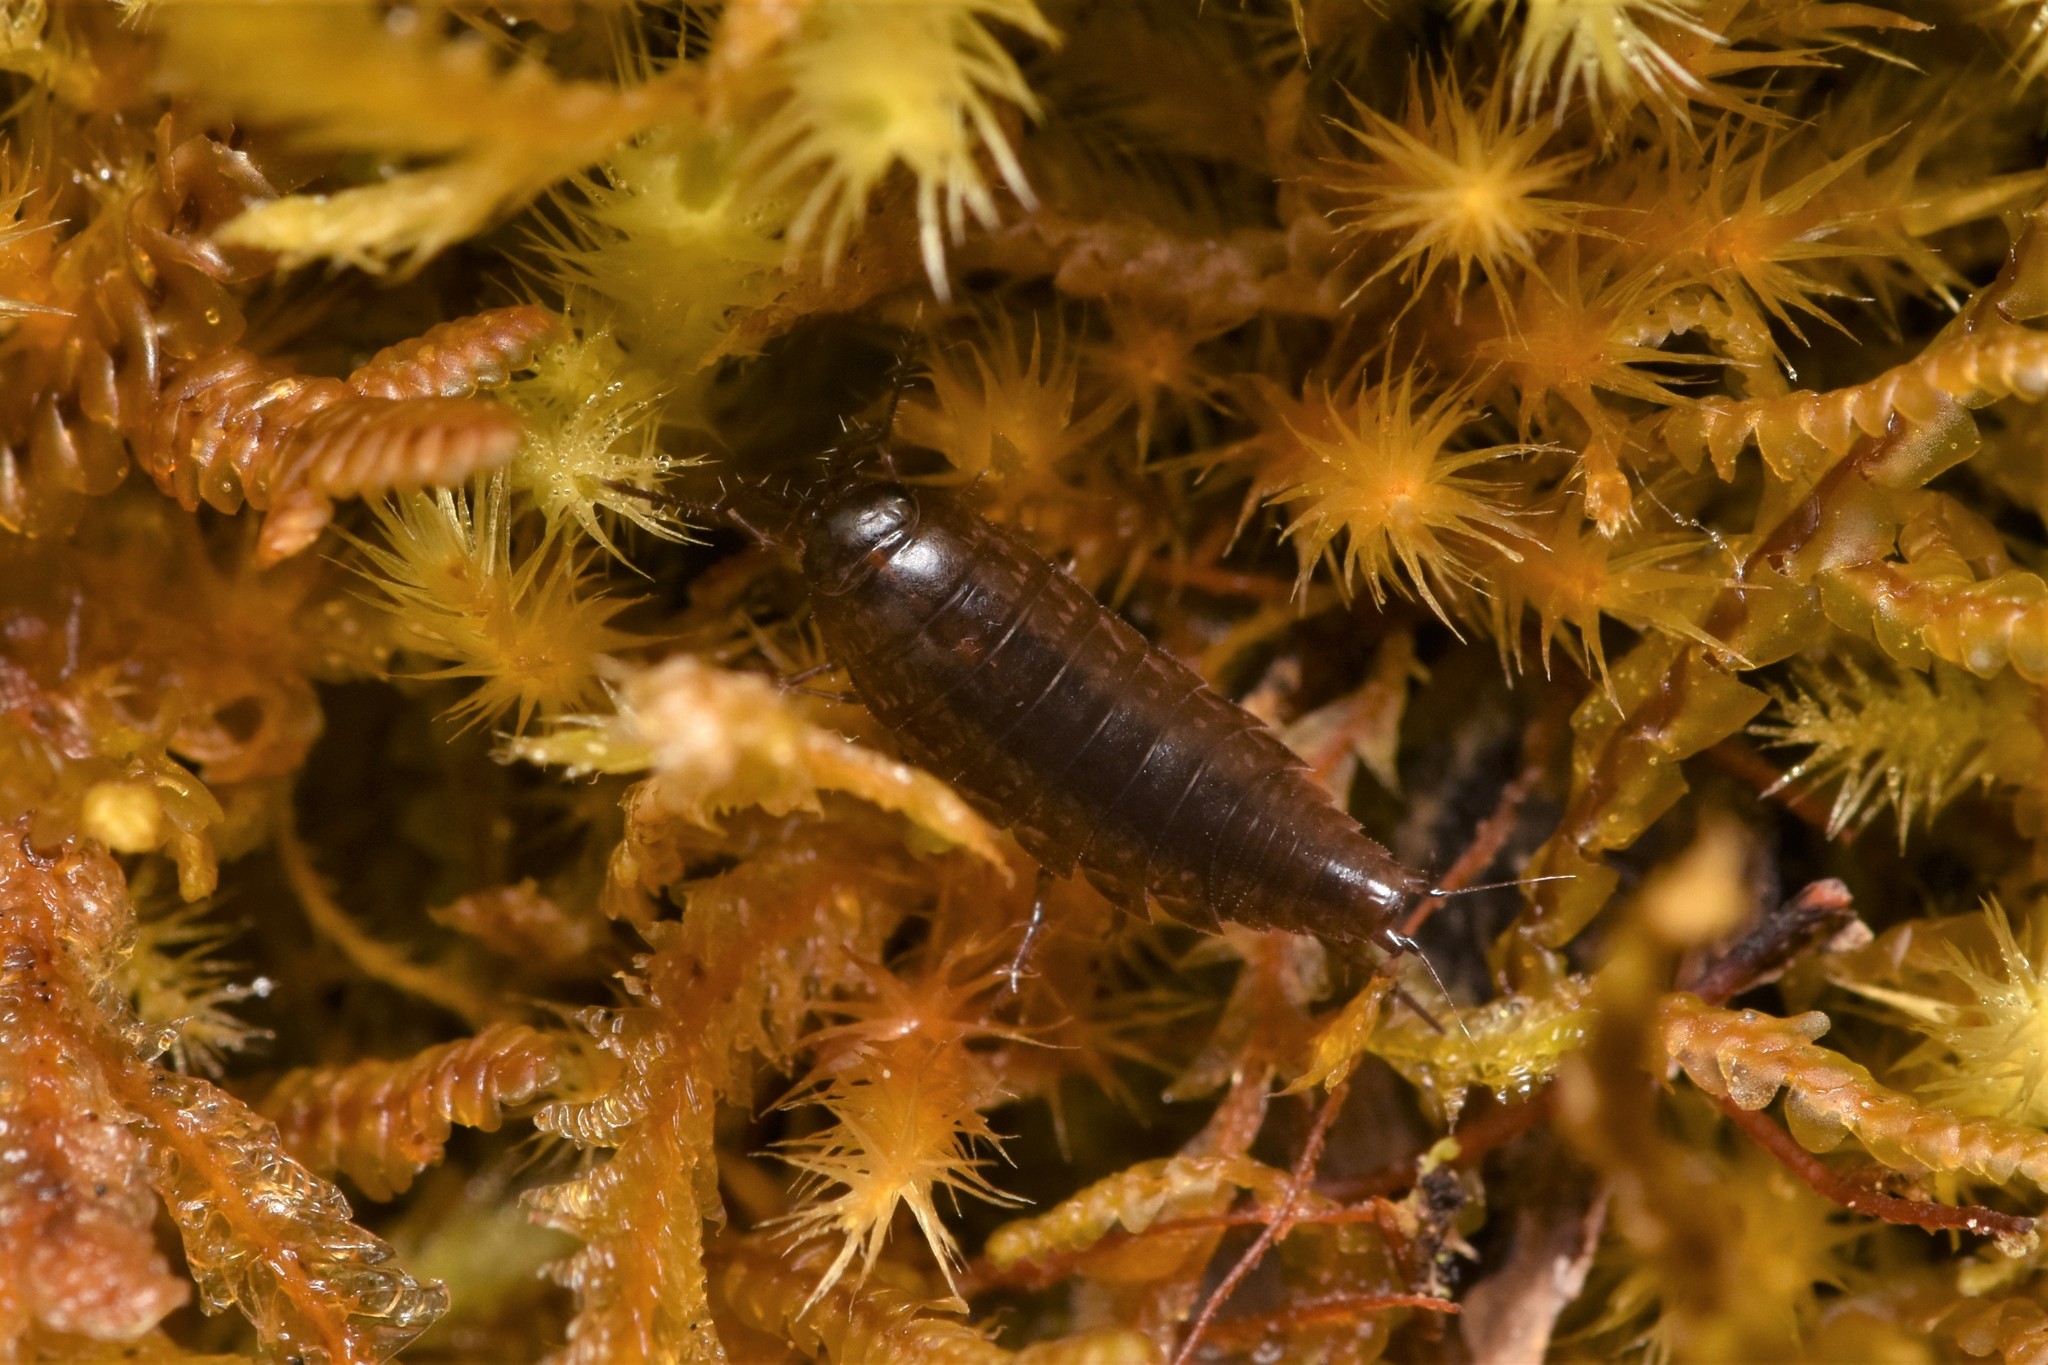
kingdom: Animalia
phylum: Arthropoda
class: Malacostraca
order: Isopoda
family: Ligiidae
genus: Ligidium
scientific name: Ligidium gracile
